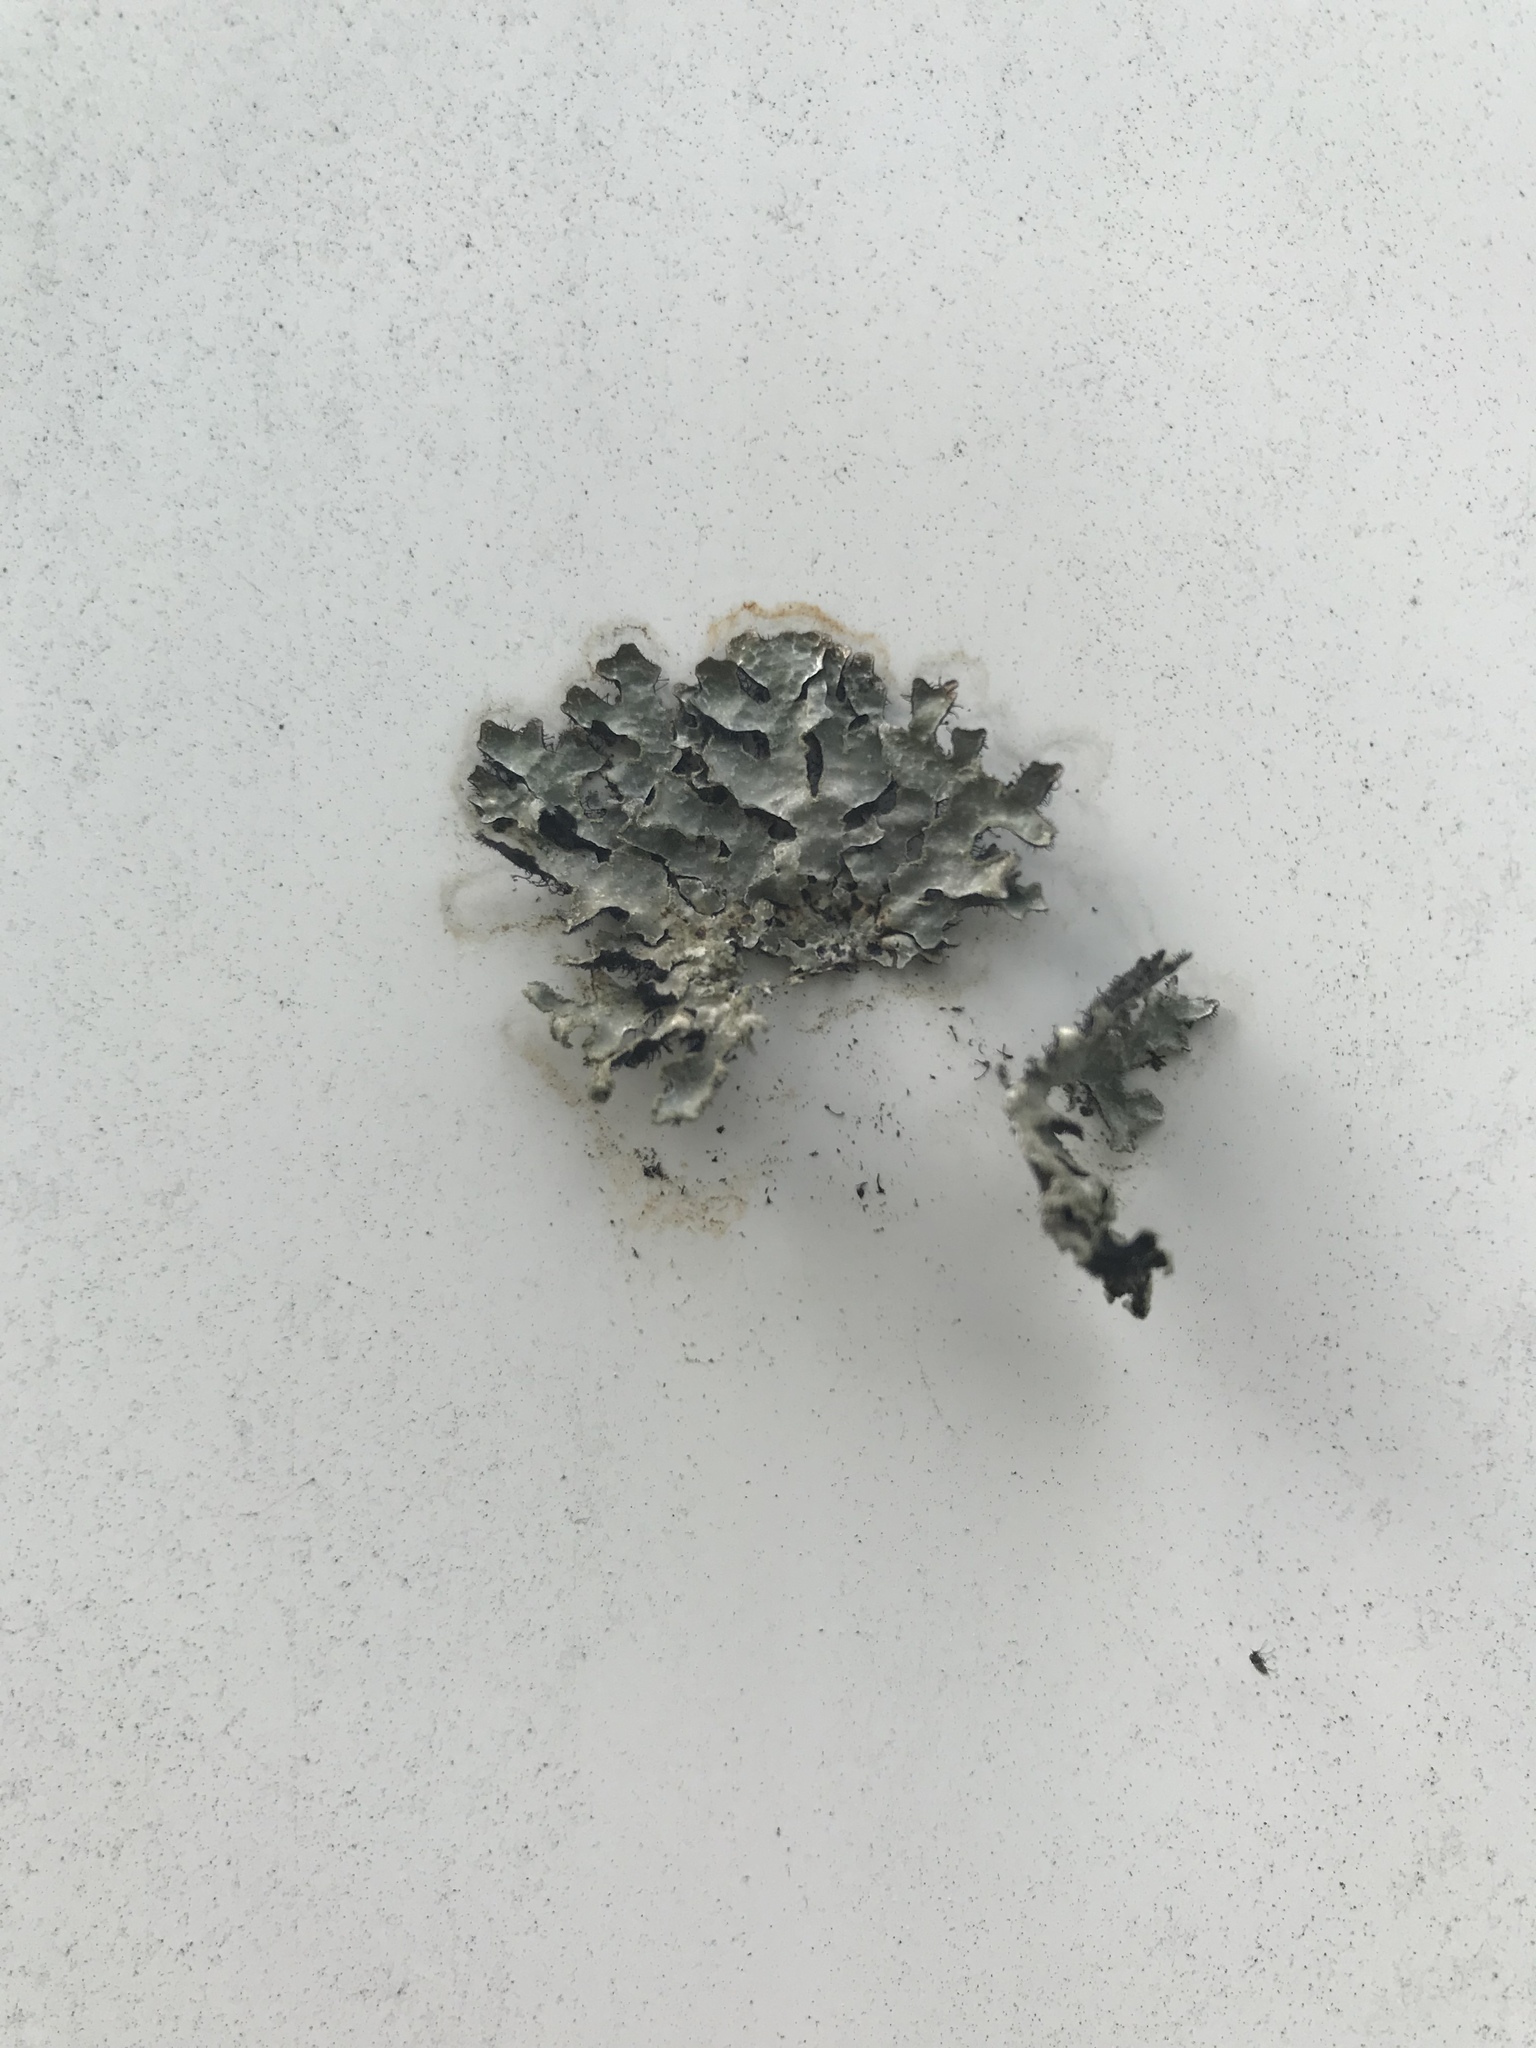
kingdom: Fungi
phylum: Ascomycota
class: Lecanoromycetes
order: Lecanorales
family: Parmeliaceae
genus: Parmelia
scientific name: Parmelia sulcata
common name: Netted shield lichen
